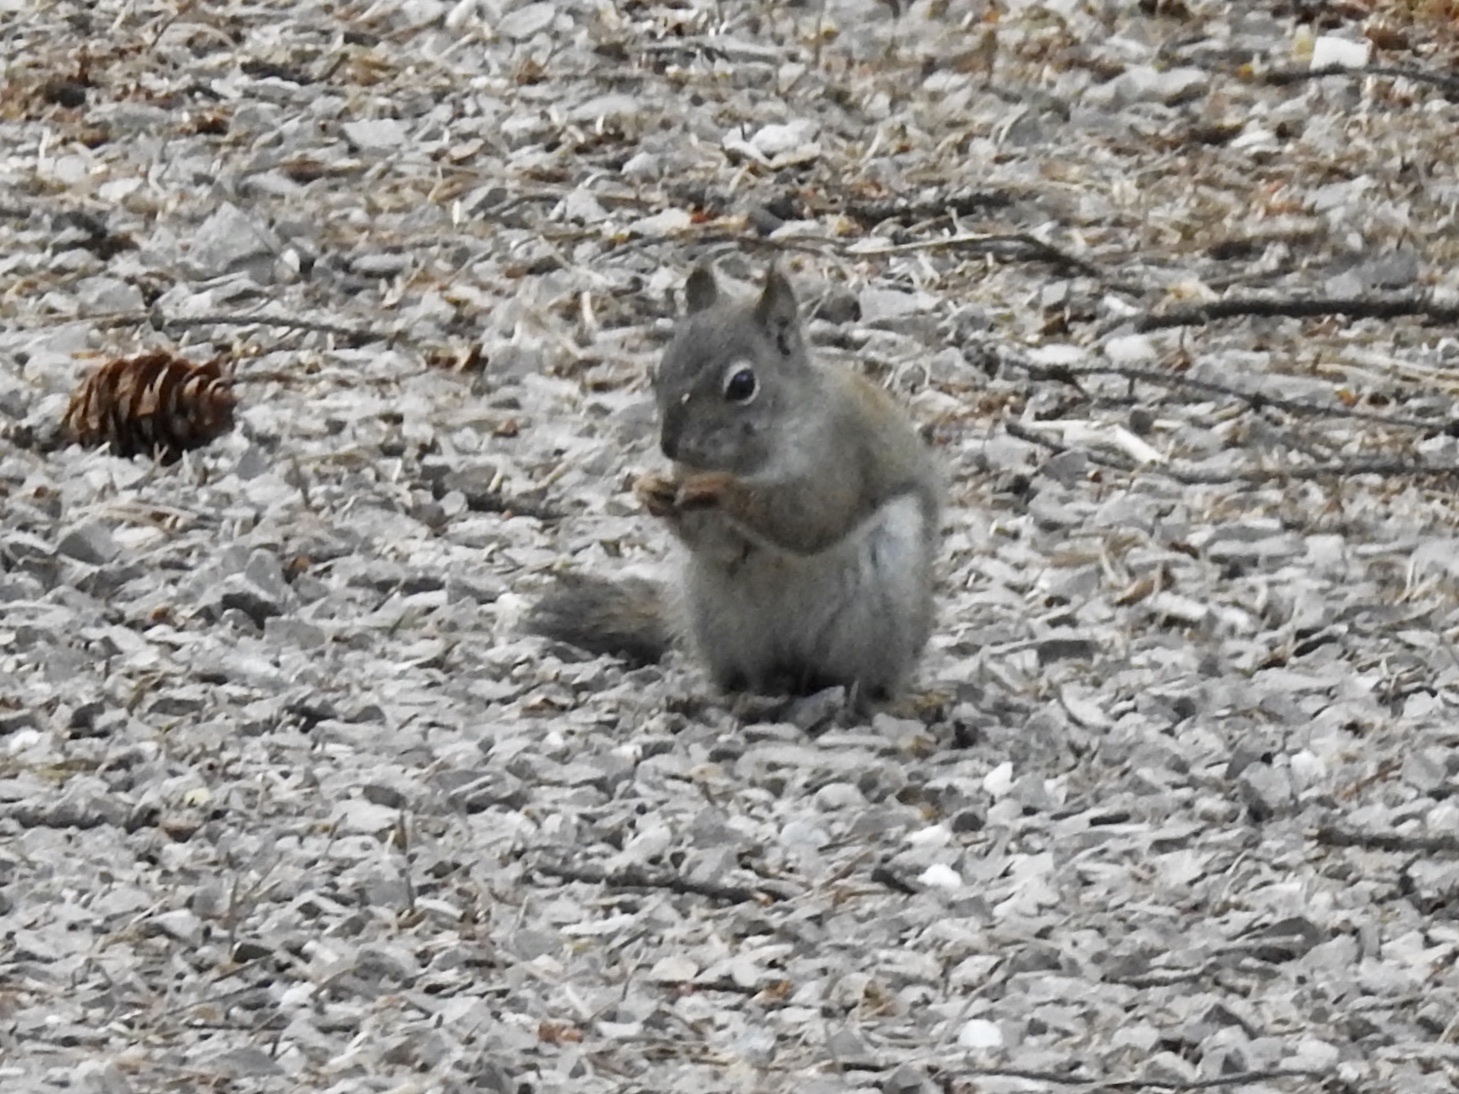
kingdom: Animalia
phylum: Chordata
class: Mammalia
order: Rodentia
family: Sciuridae
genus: Tamiasciurus
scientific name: Tamiasciurus hudsonicus
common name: Red squirrel
